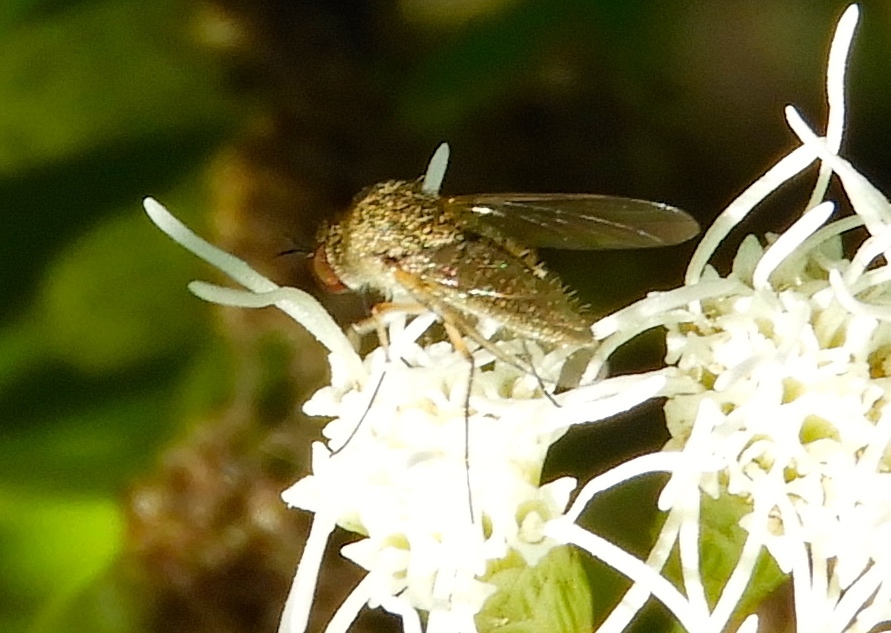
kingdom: Animalia
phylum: Arthropoda
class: Insecta
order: Diptera
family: Bombyliidae
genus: Geron
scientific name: Geron
